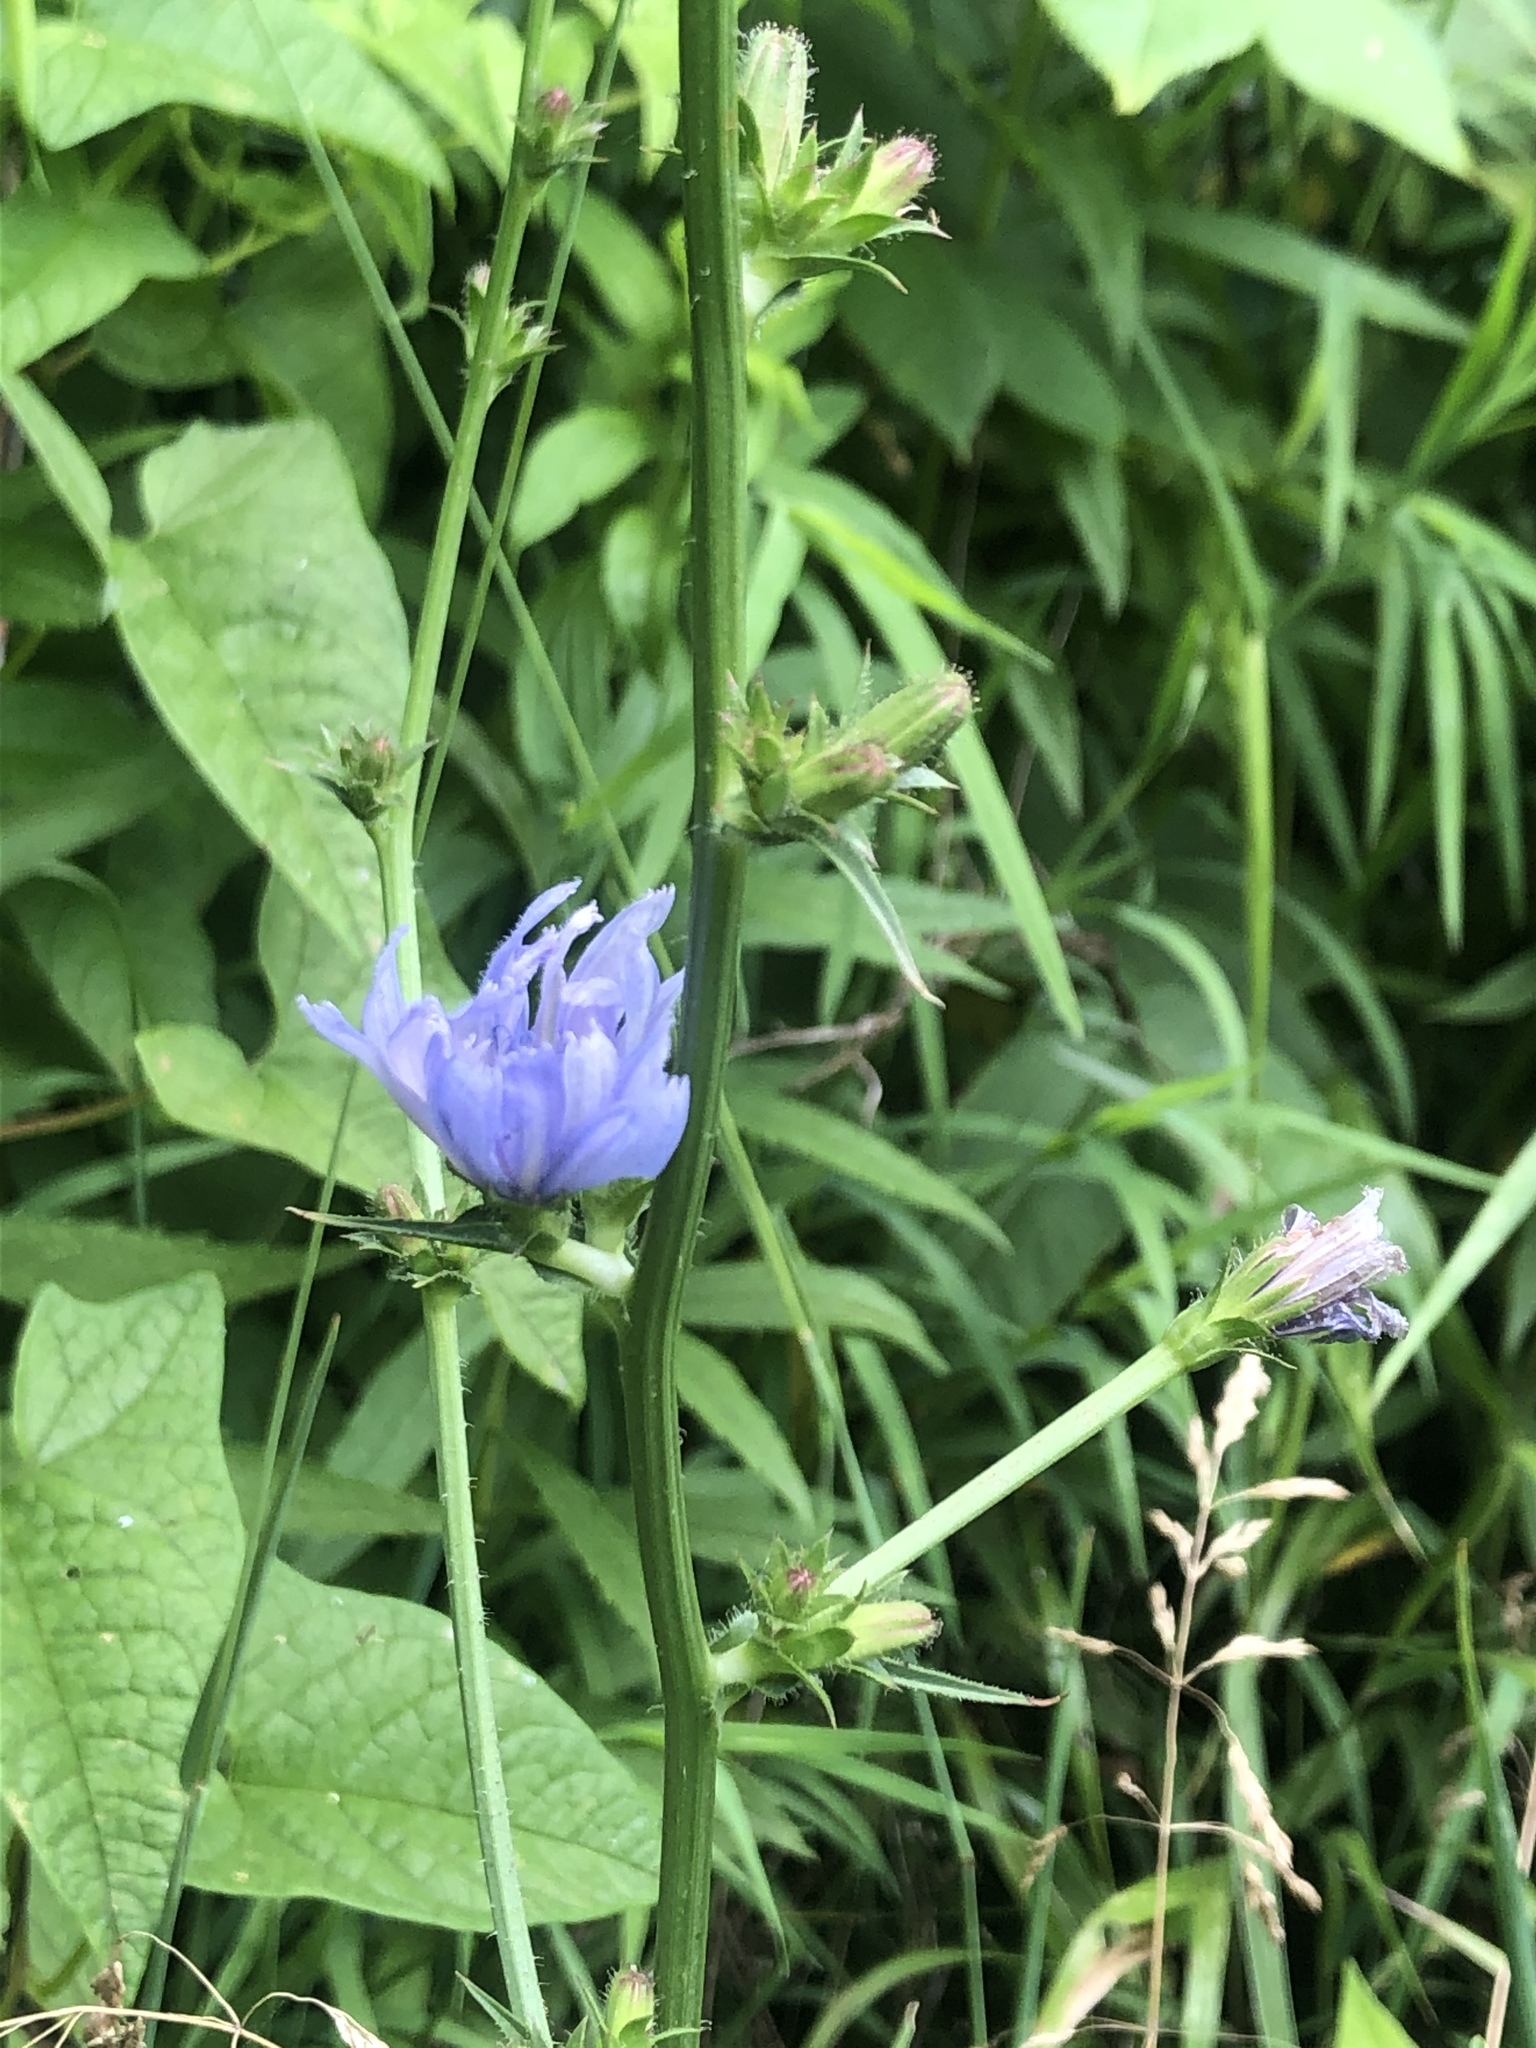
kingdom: Plantae
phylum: Tracheophyta
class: Magnoliopsida
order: Asterales
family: Asteraceae
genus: Cichorium
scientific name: Cichorium intybus
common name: Chicory
